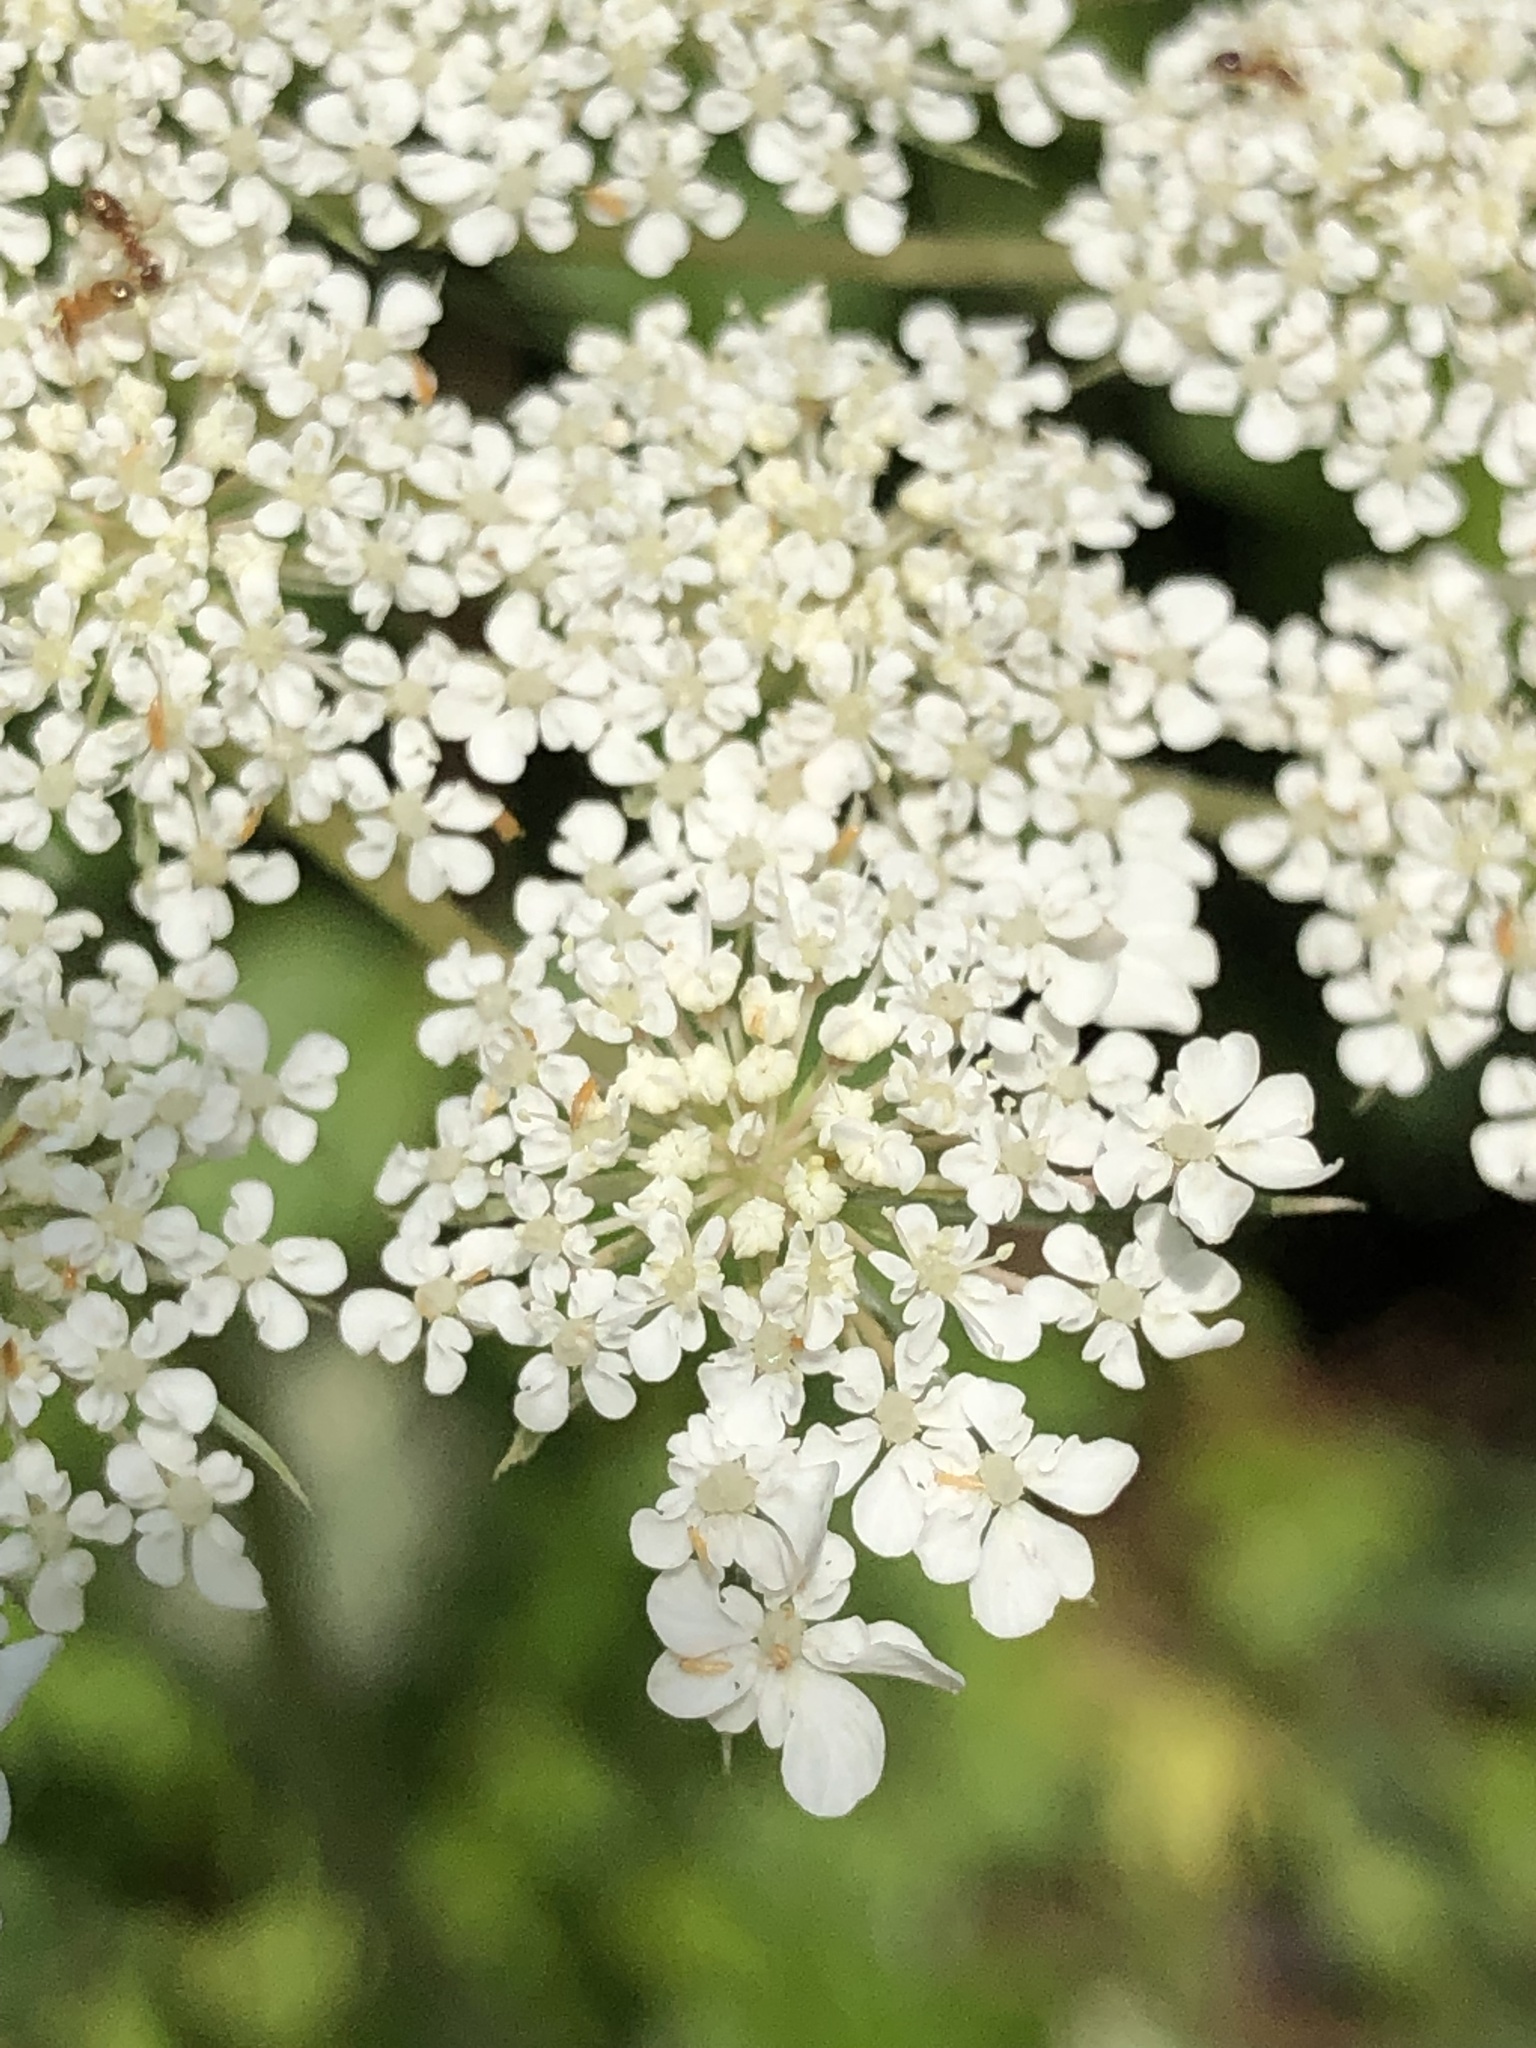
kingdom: Plantae
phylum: Tracheophyta
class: Magnoliopsida
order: Apiales
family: Apiaceae
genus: Daucus
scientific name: Daucus carota
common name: Wild carrot
